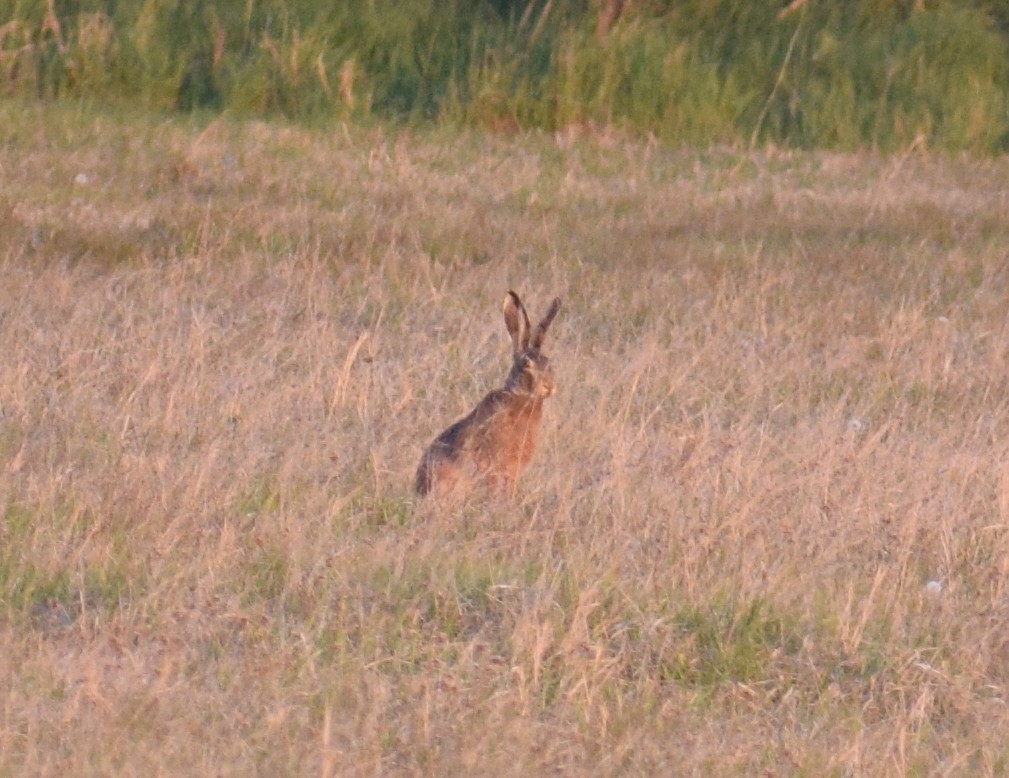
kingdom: Animalia
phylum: Chordata
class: Mammalia
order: Lagomorpha
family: Leporidae
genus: Lepus
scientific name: Lepus europaeus
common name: European hare
